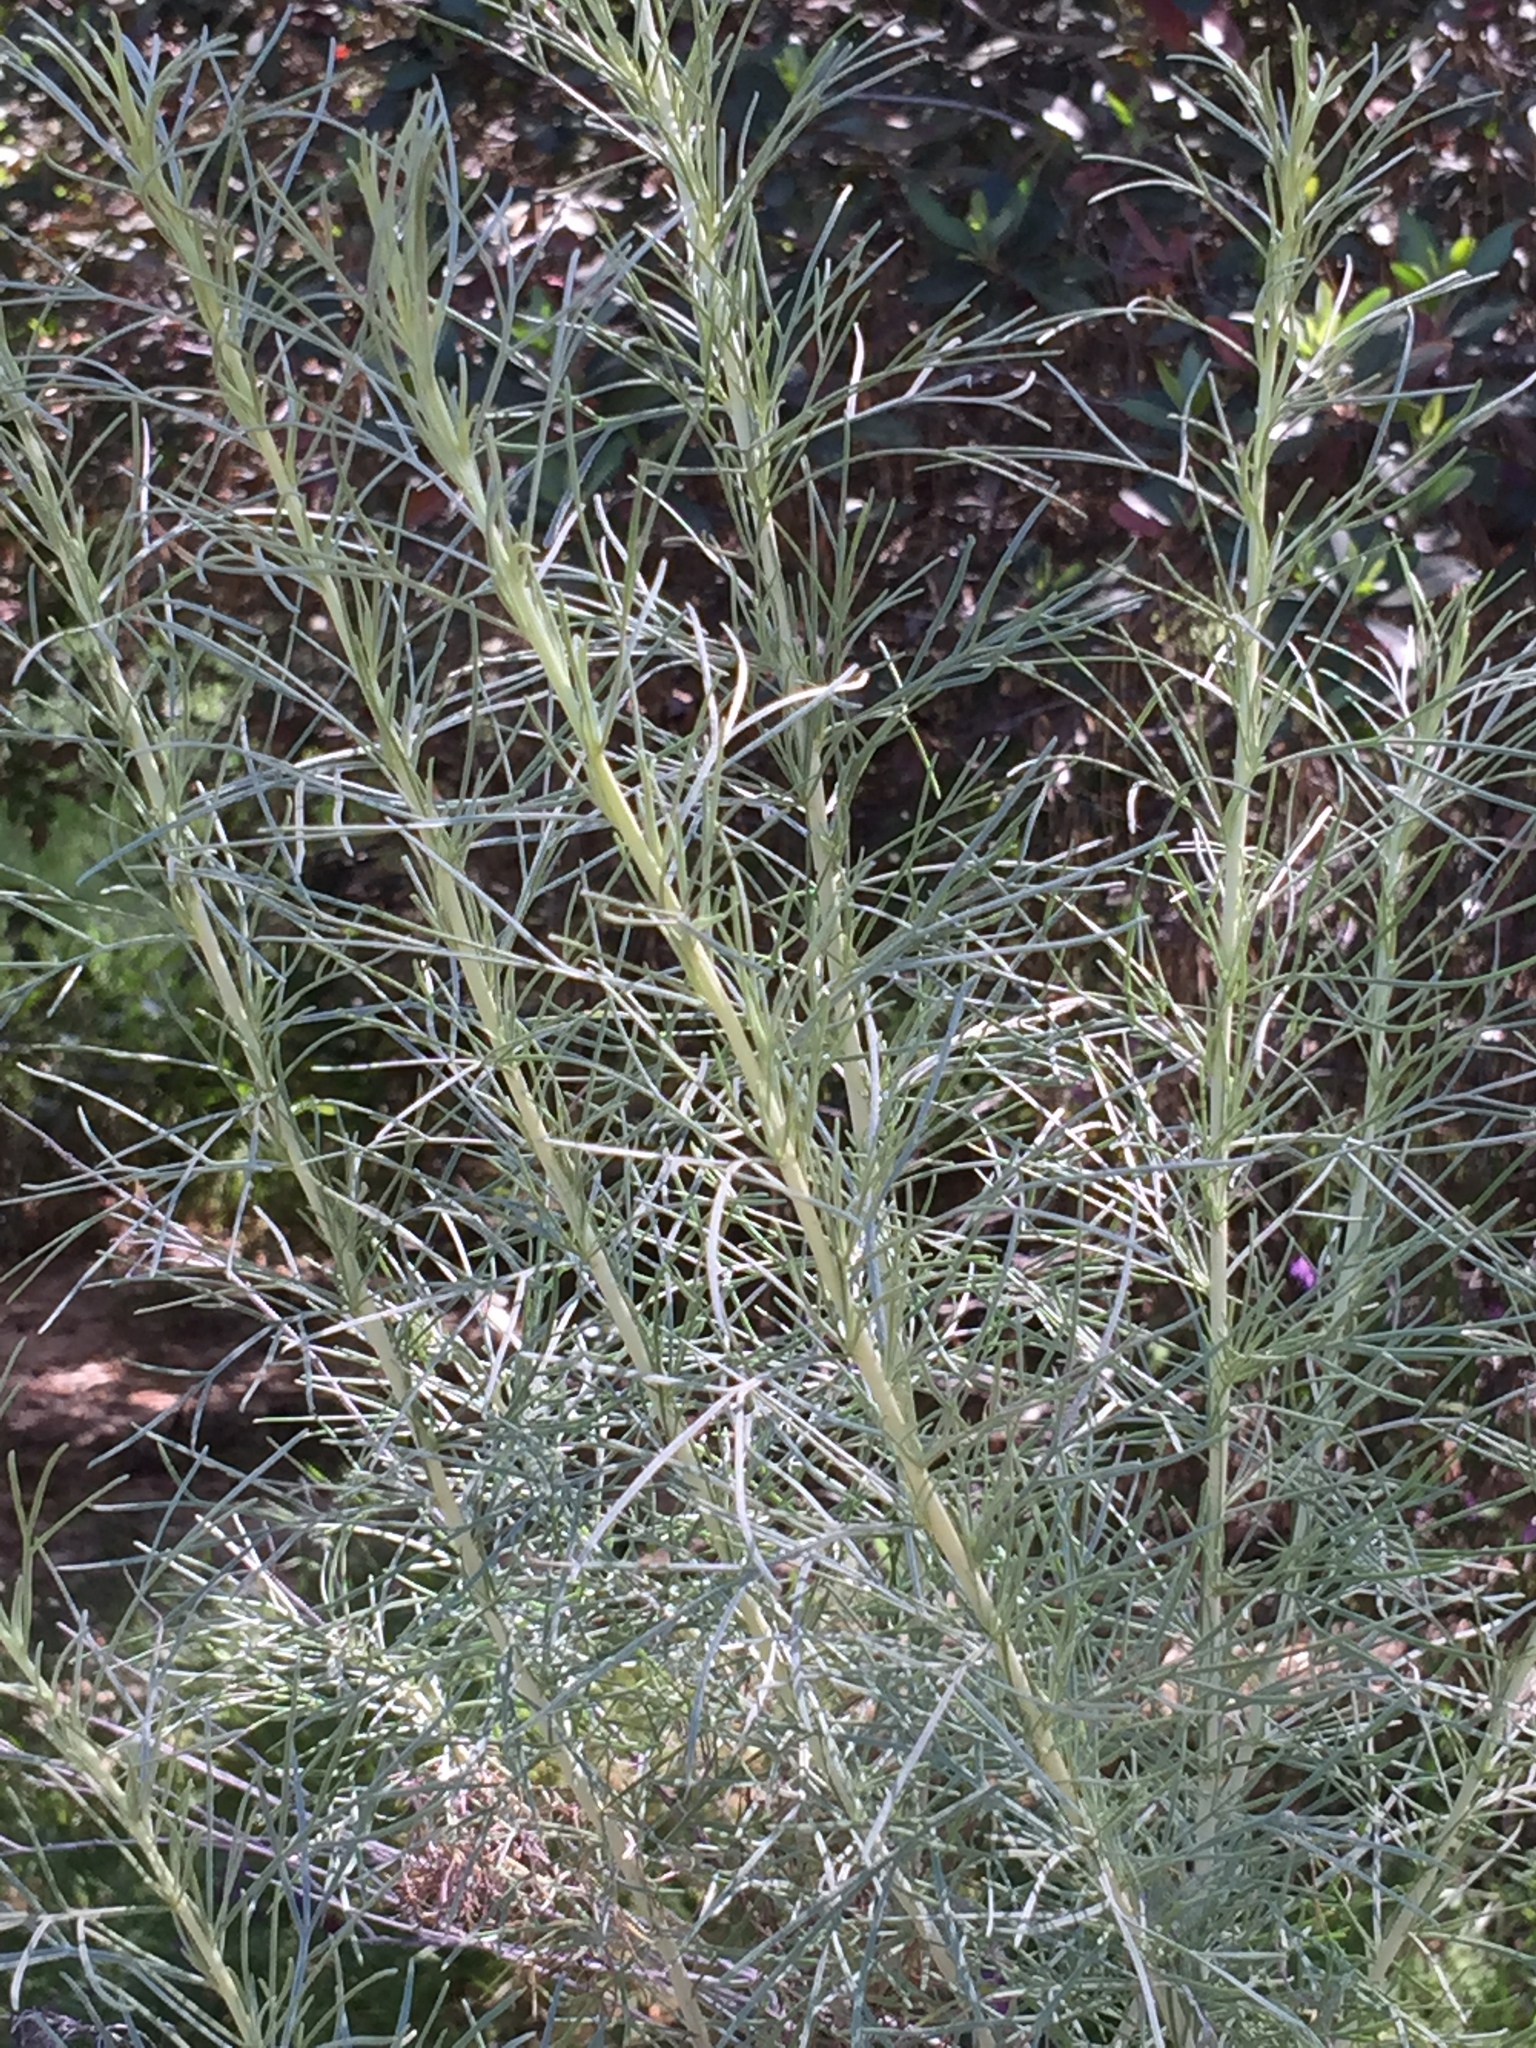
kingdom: Plantae
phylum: Tracheophyta
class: Magnoliopsida
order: Asterales
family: Asteraceae
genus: Artemisia
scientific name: Artemisia californica
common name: California sagebrush
